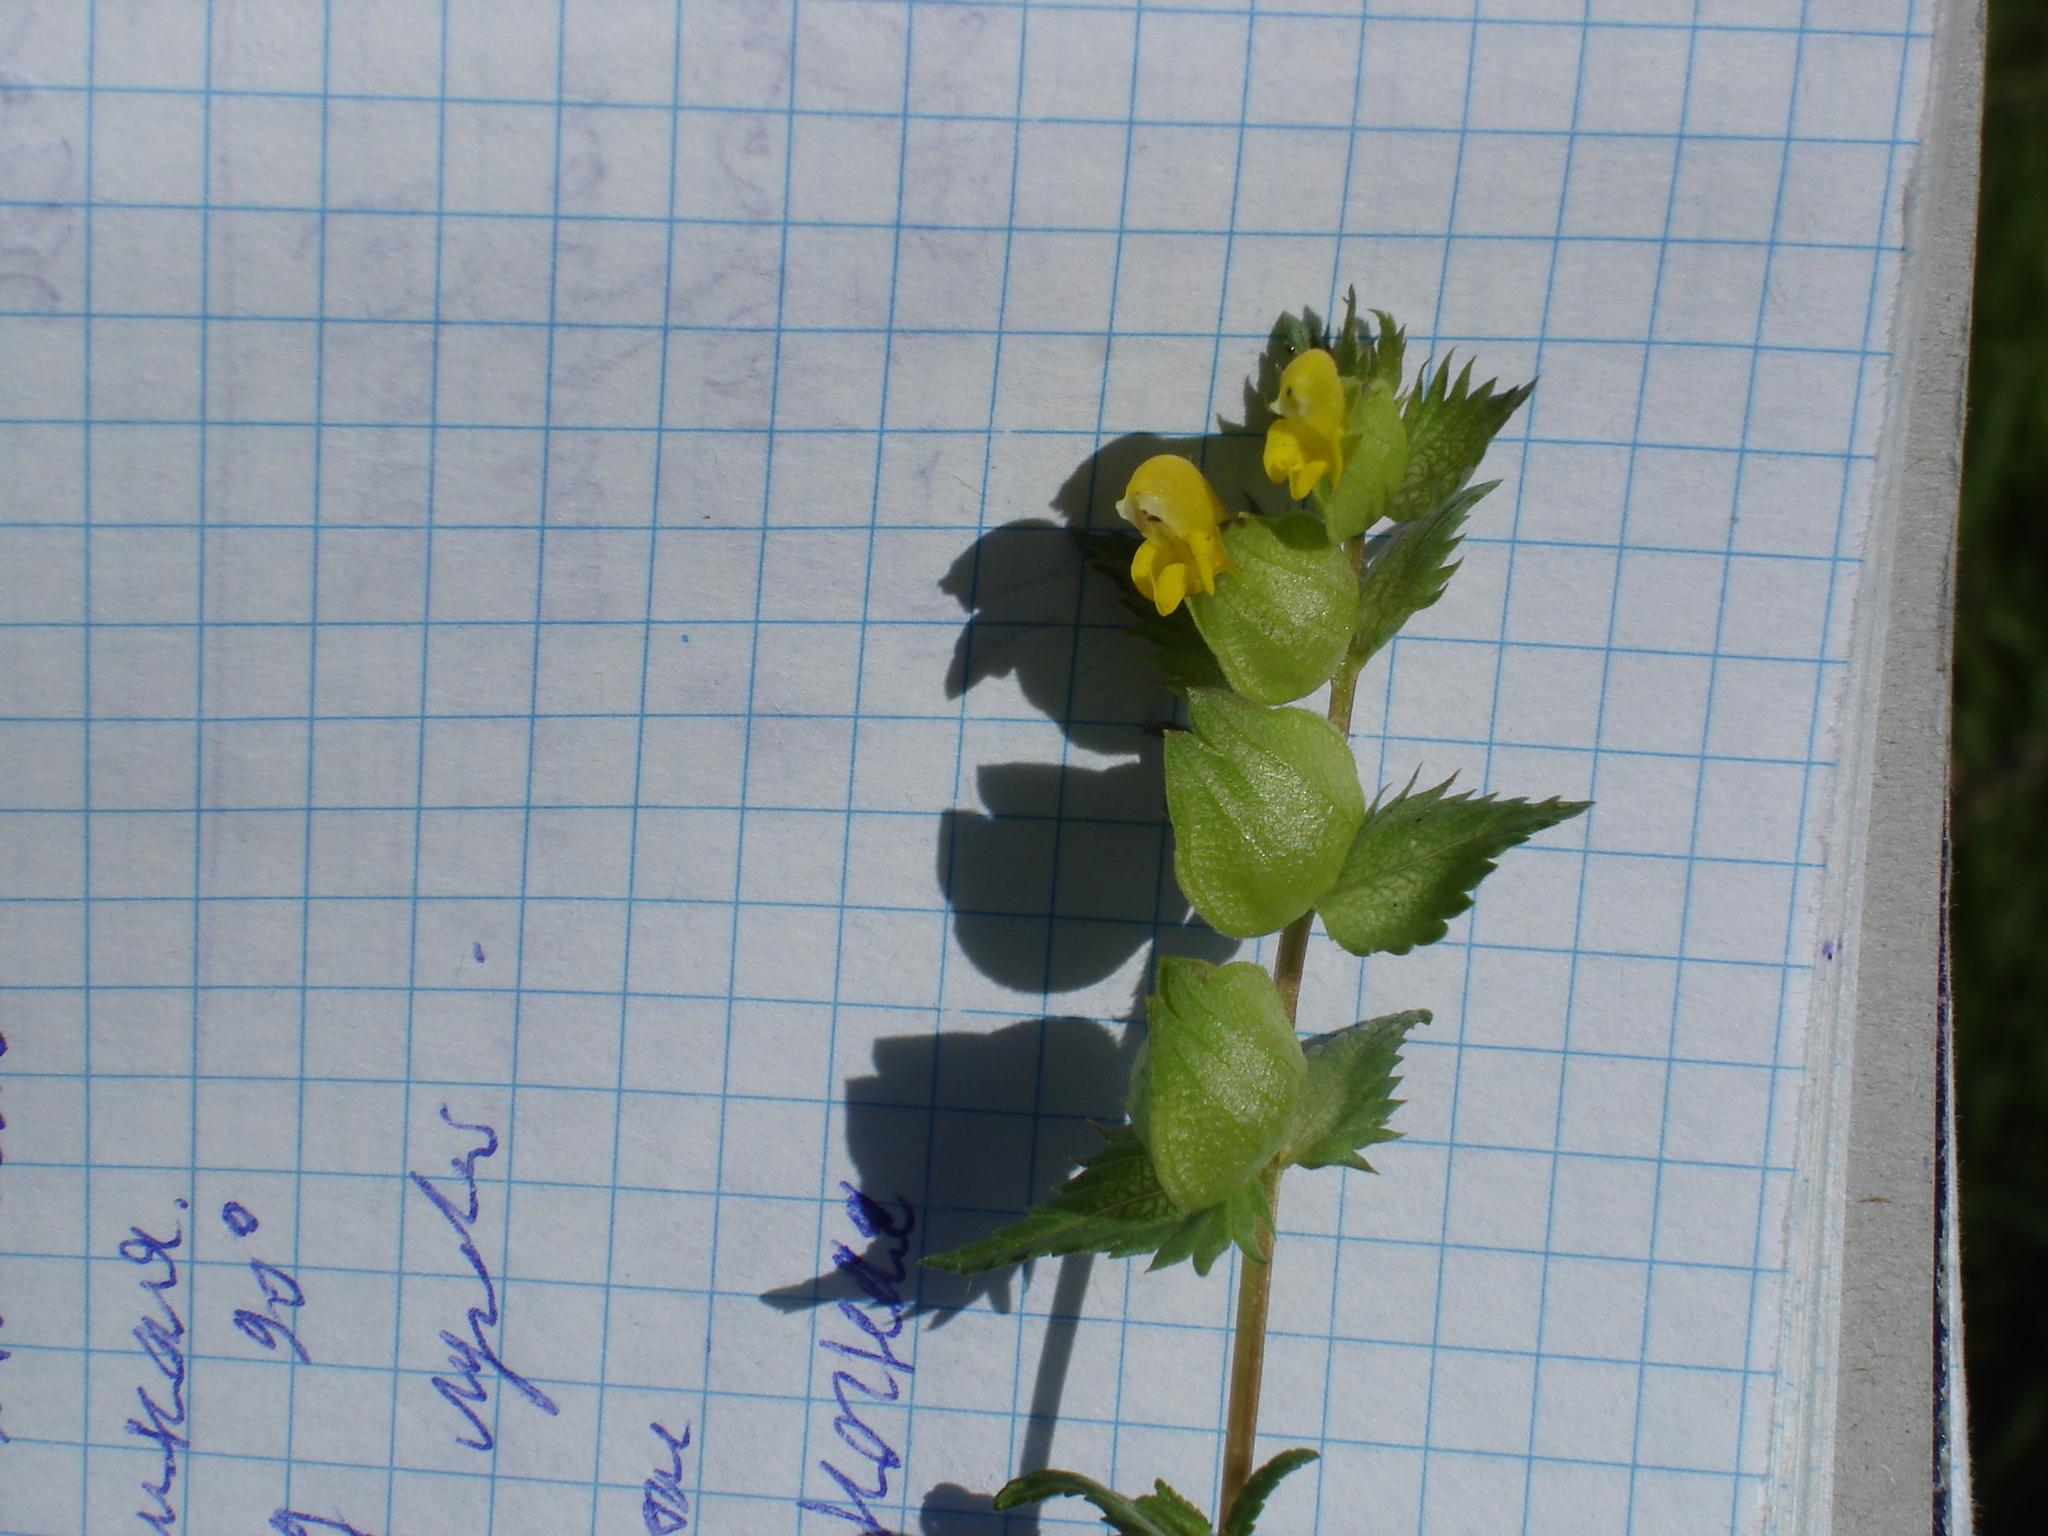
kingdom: Plantae
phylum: Tracheophyta
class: Magnoliopsida
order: Lamiales
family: Orobanchaceae
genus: Rhinanthus
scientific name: Rhinanthus minor
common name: Yellow-rattle
